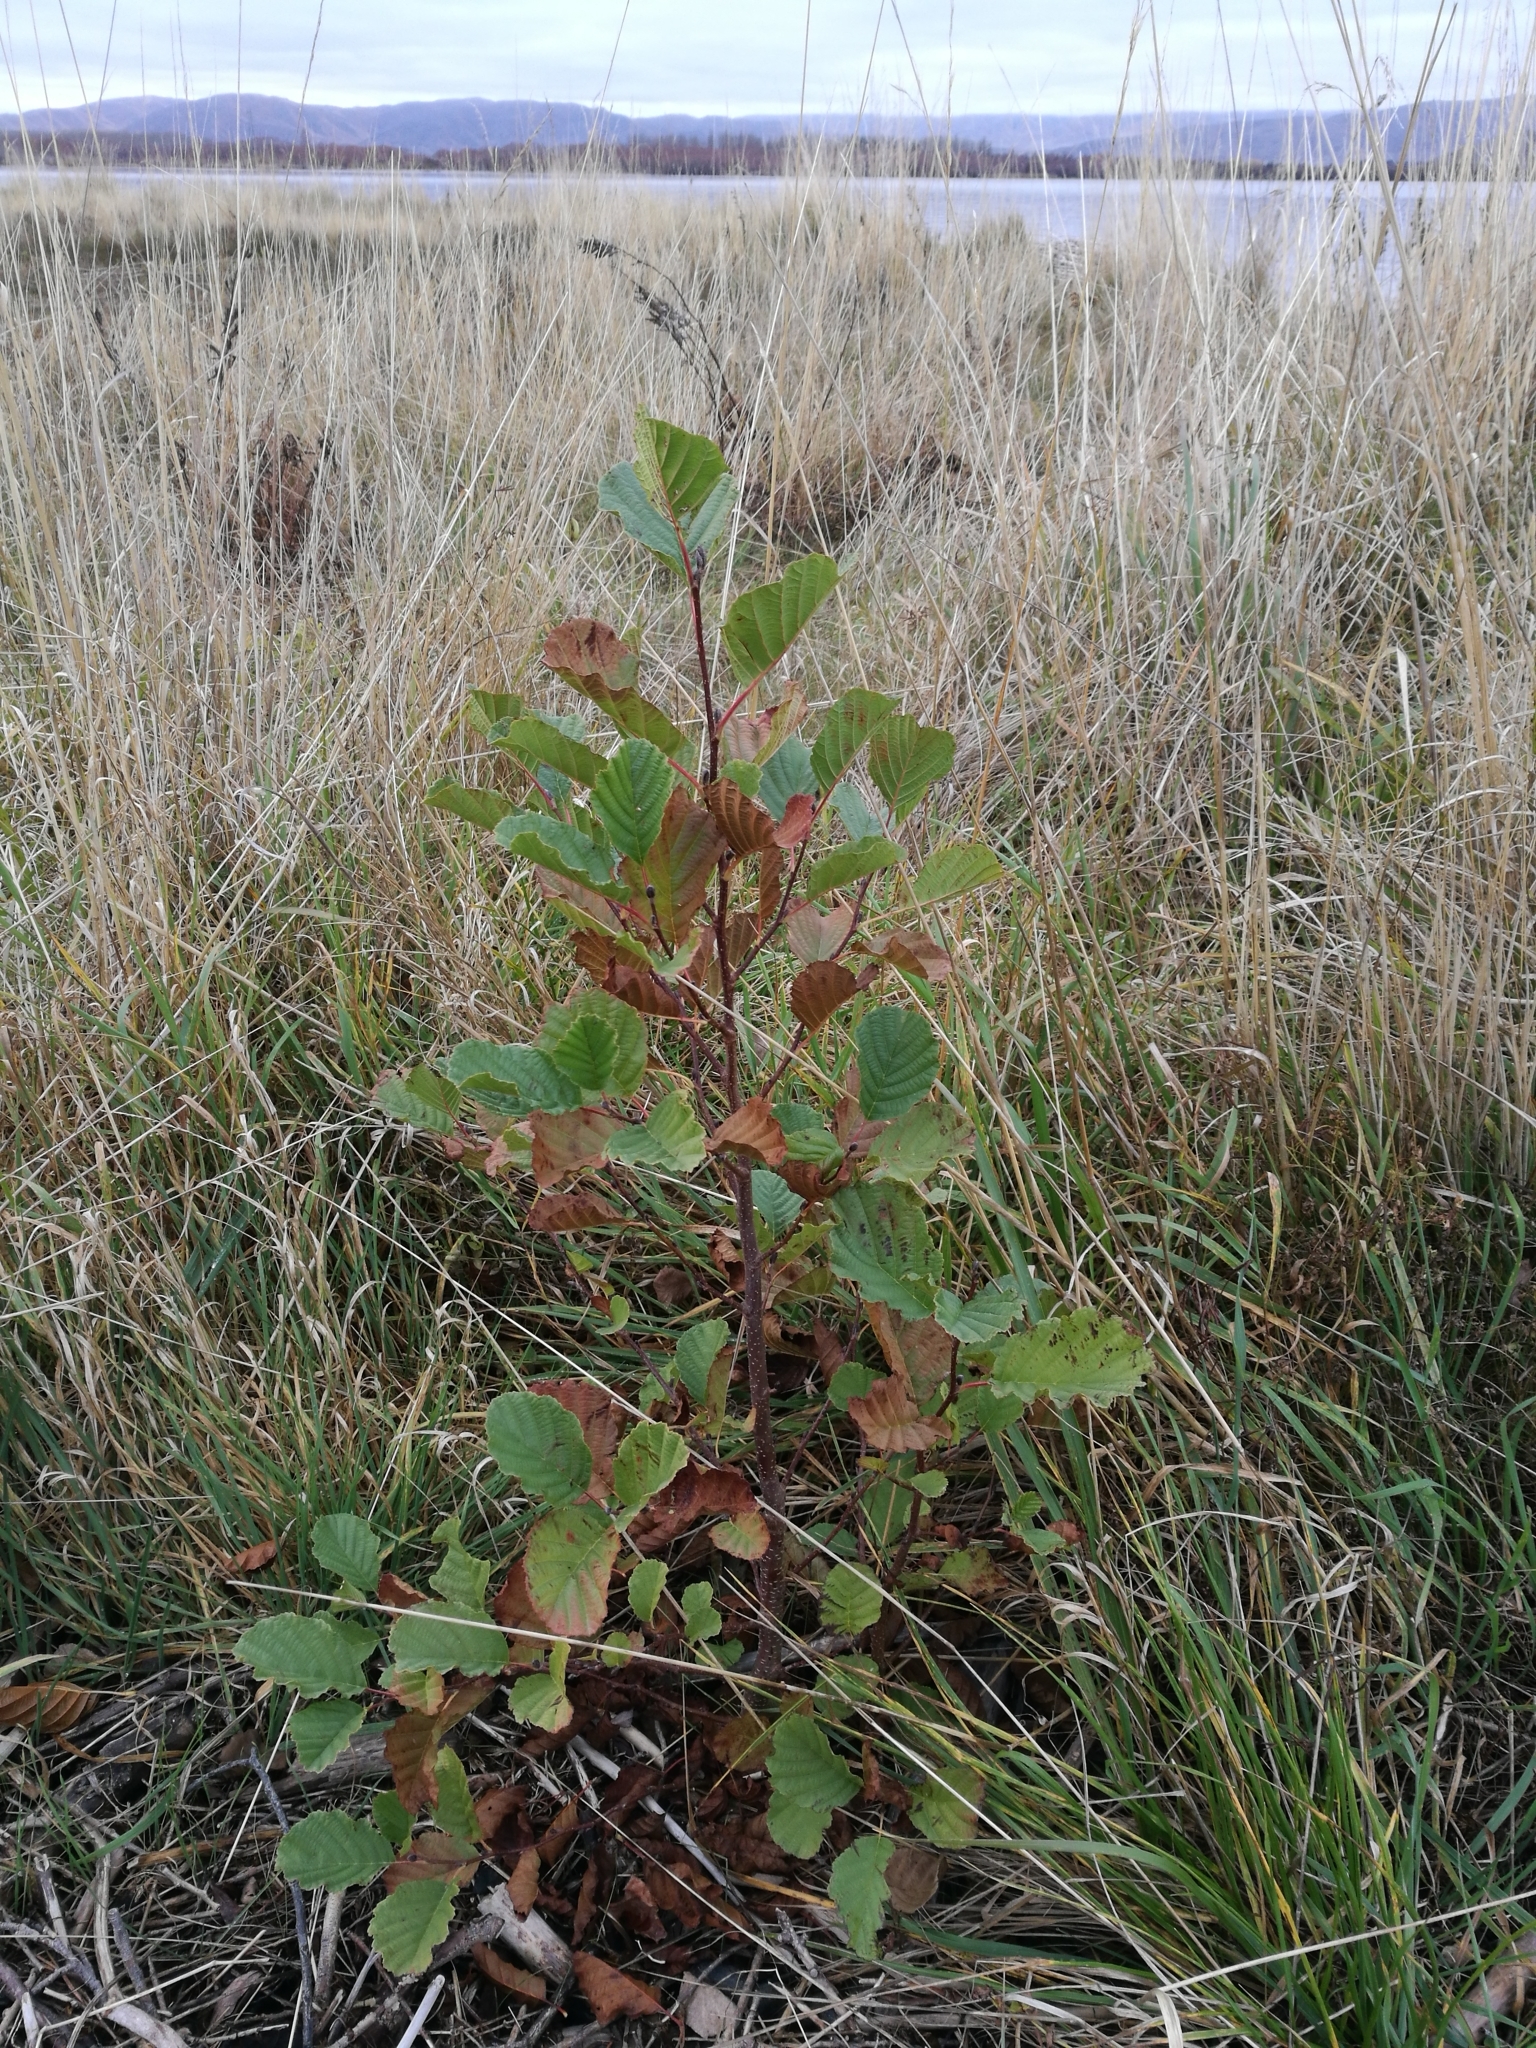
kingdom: Plantae
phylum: Tracheophyta
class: Magnoliopsida
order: Fagales
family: Betulaceae
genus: Alnus
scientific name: Alnus glutinosa
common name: Black alder
